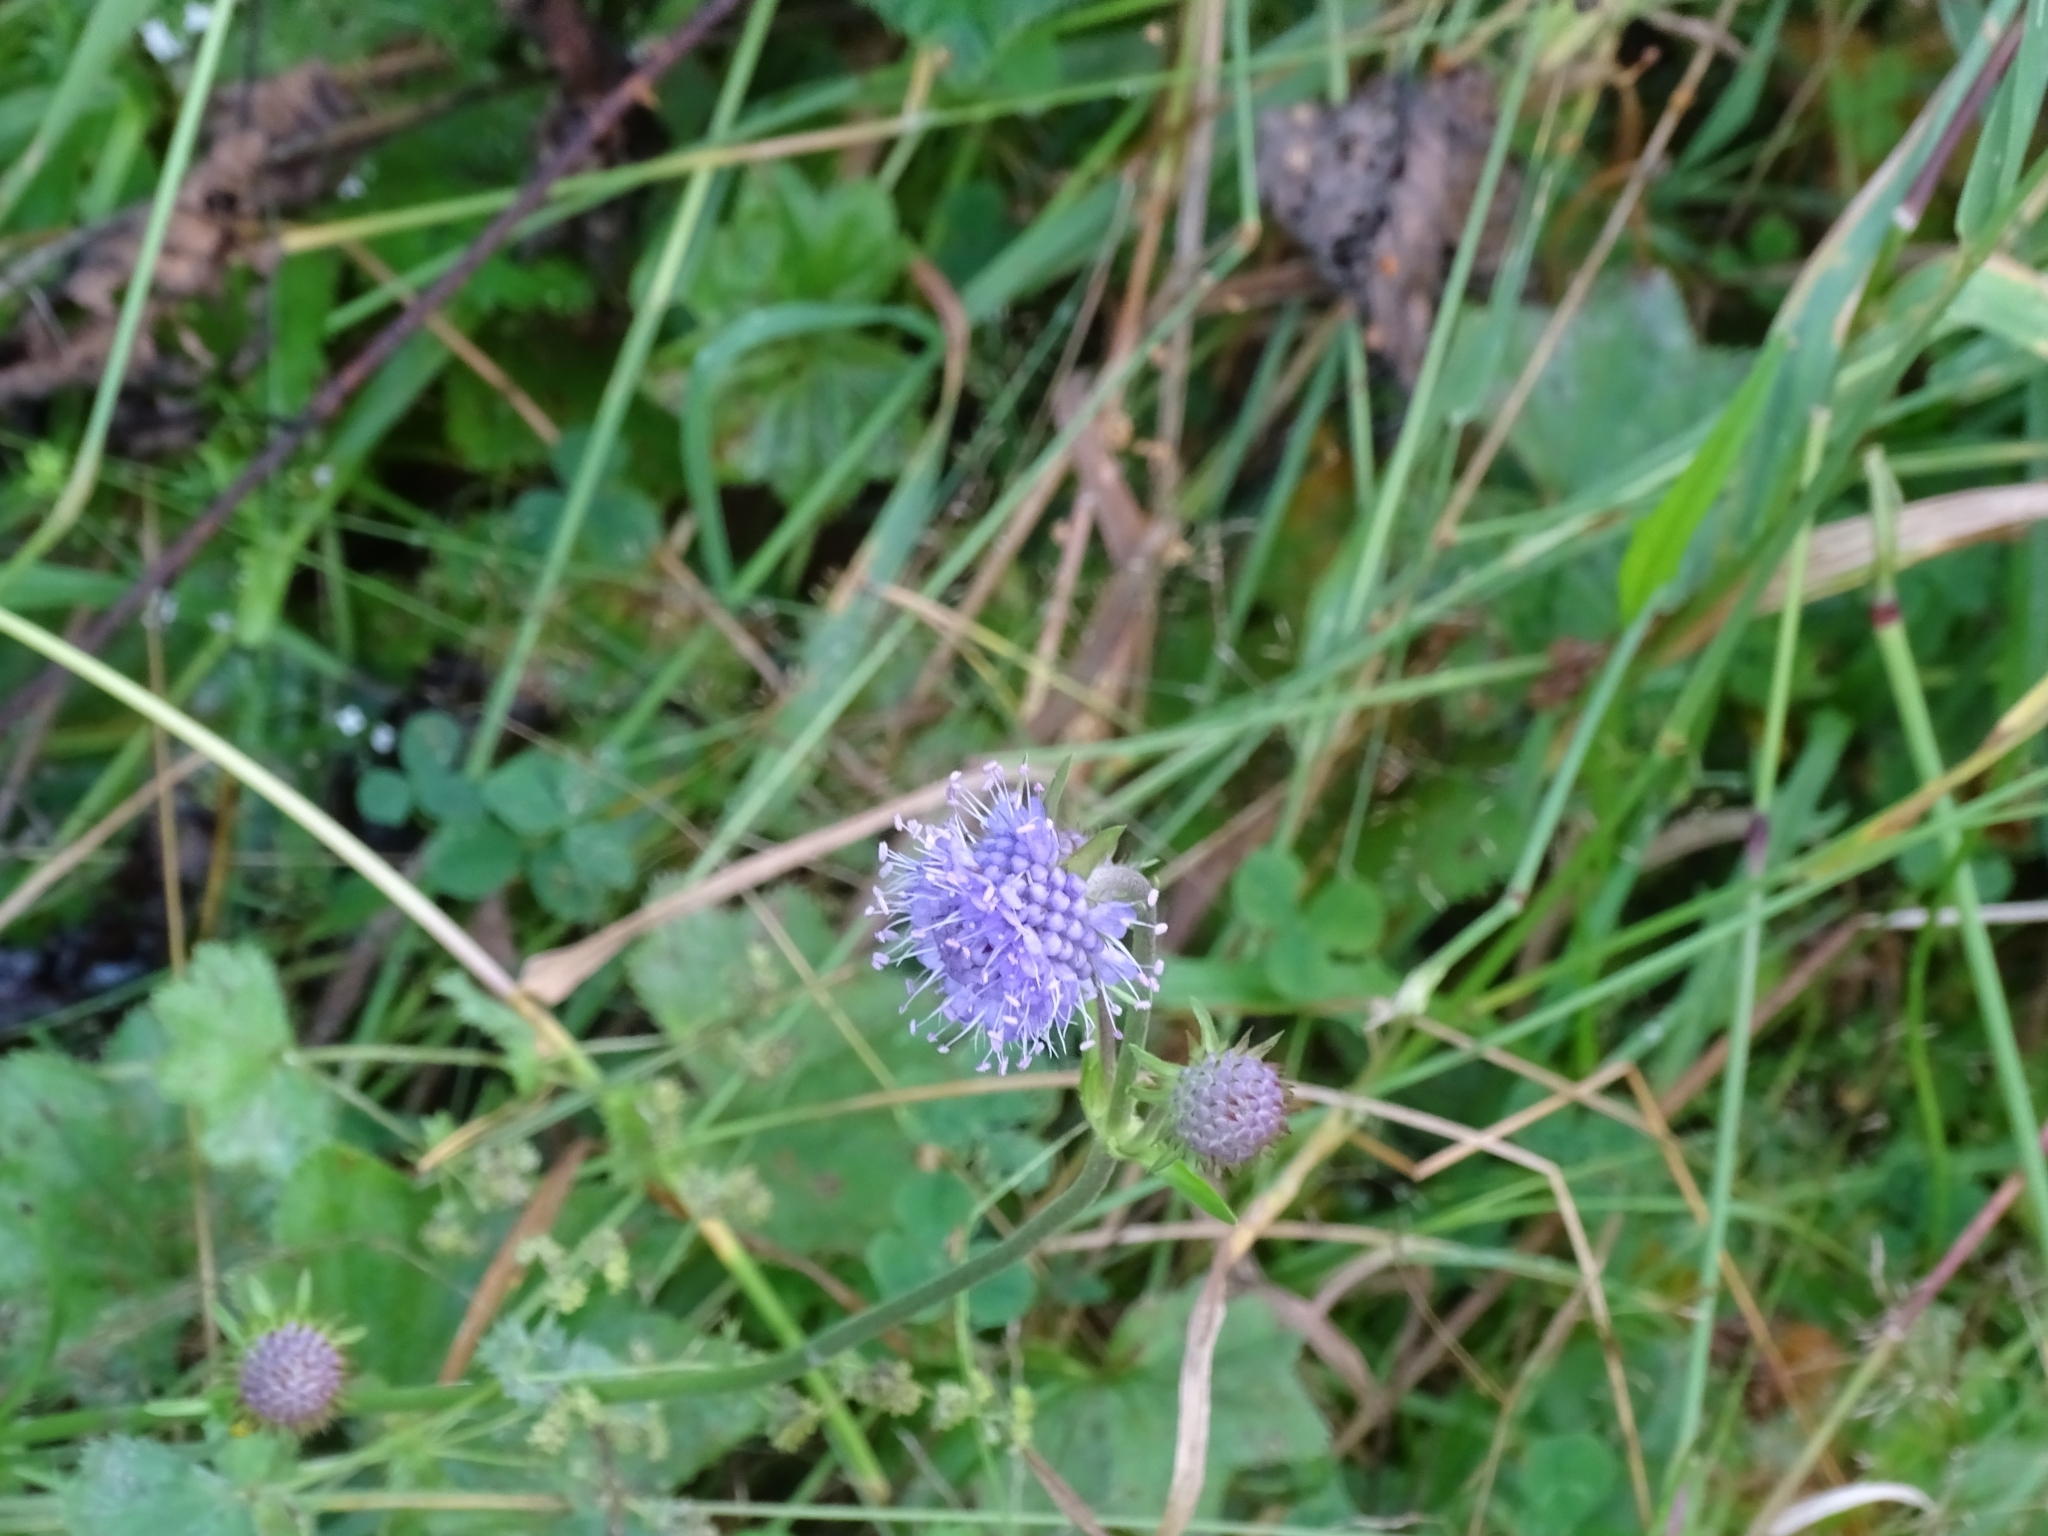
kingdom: Plantae
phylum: Tracheophyta
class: Magnoliopsida
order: Dipsacales
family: Caprifoliaceae
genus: Succisa
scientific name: Succisa pratensis
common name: Devil's-bit
